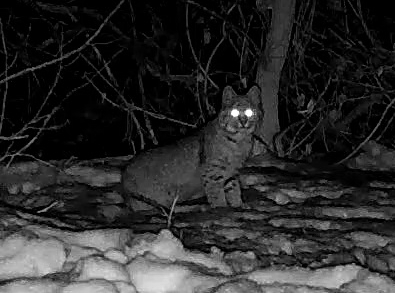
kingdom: Animalia
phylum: Chordata
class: Mammalia
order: Carnivora
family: Felidae
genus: Lynx
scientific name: Lynx rufus
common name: Bobcat
